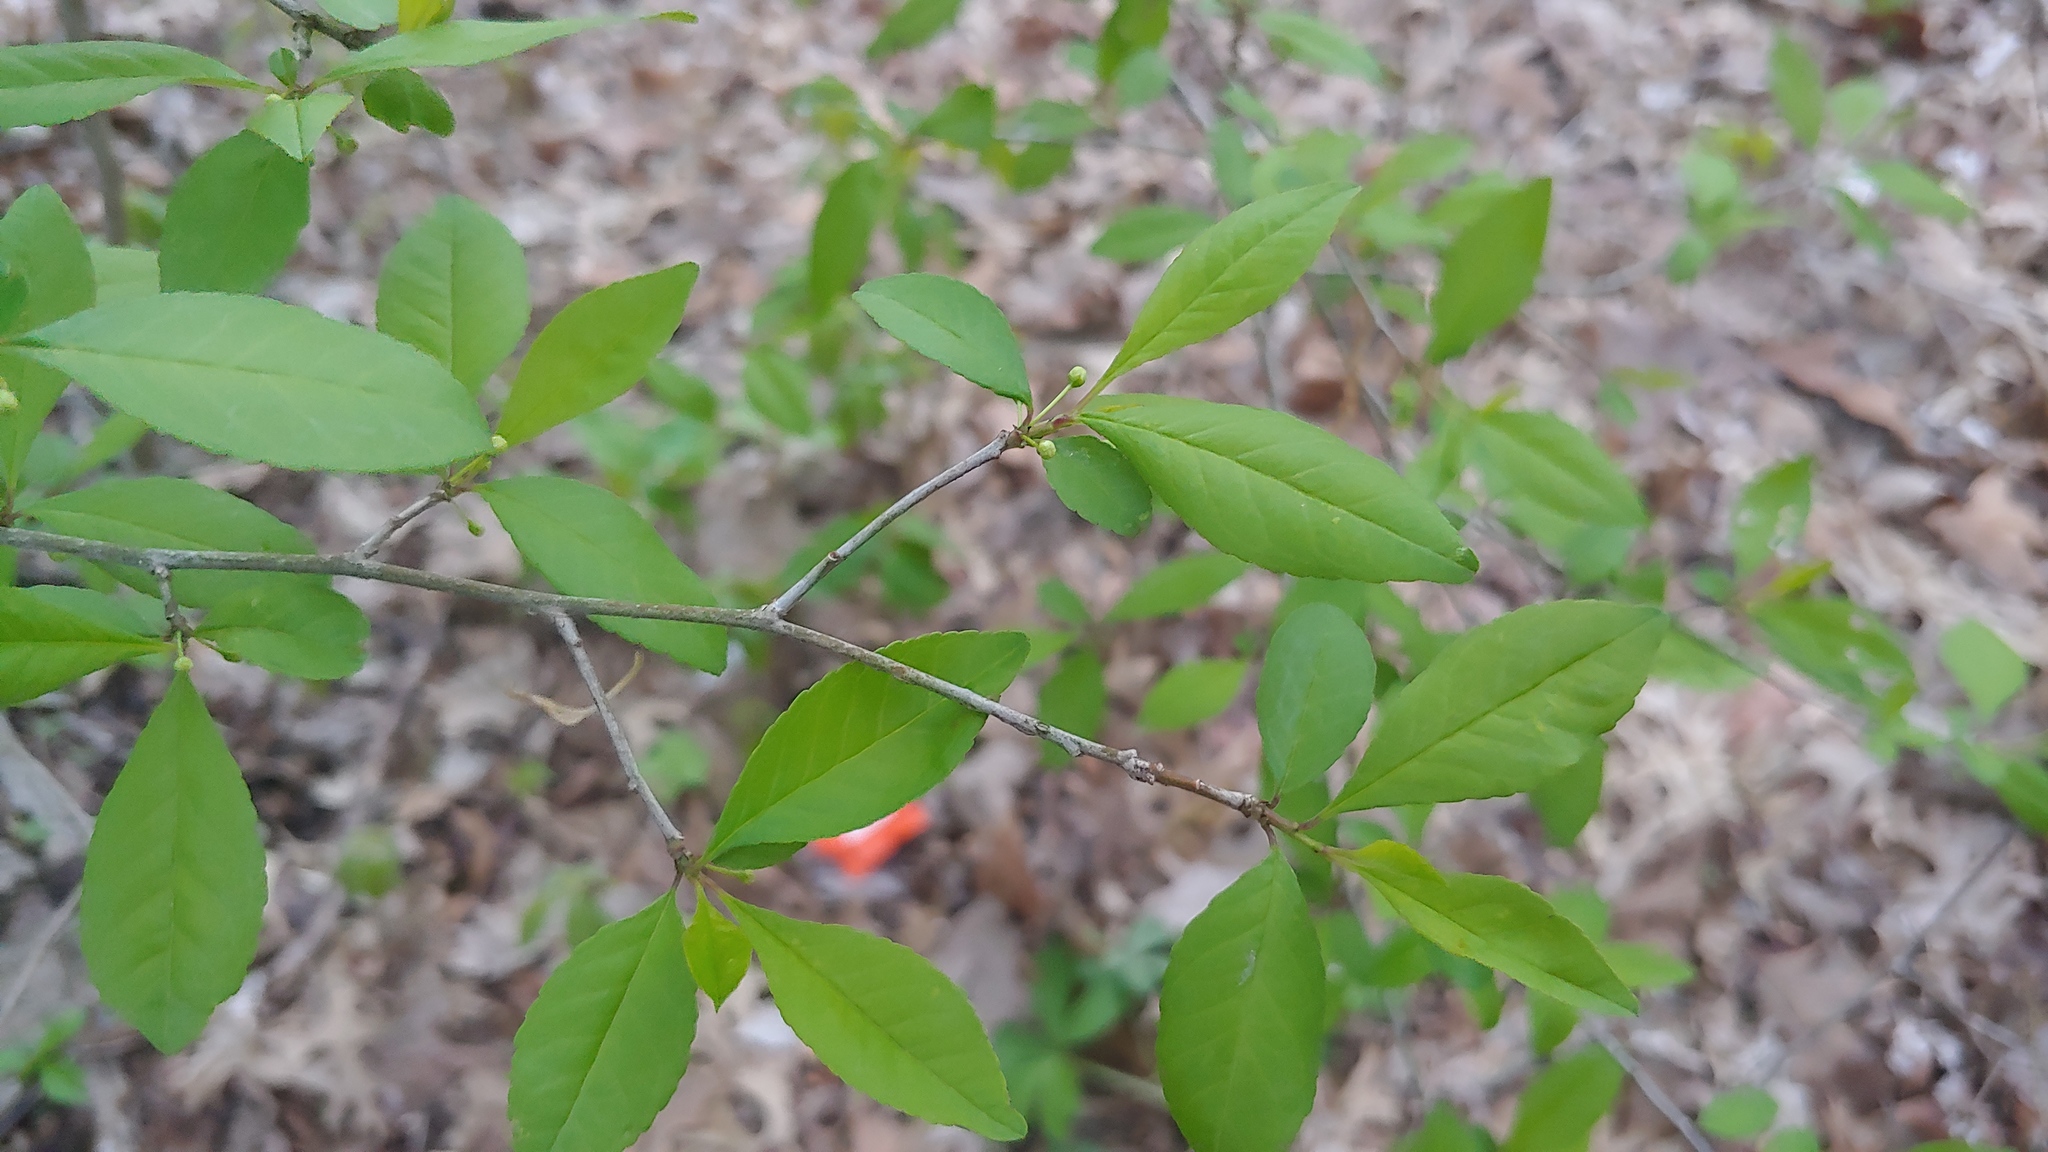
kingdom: Plantae
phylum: Tracheophyta
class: Magnoliopsida
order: Aquifoliales
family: Aquifoliaceae
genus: Ilex
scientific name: Ilex decidua
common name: Possum-haw
